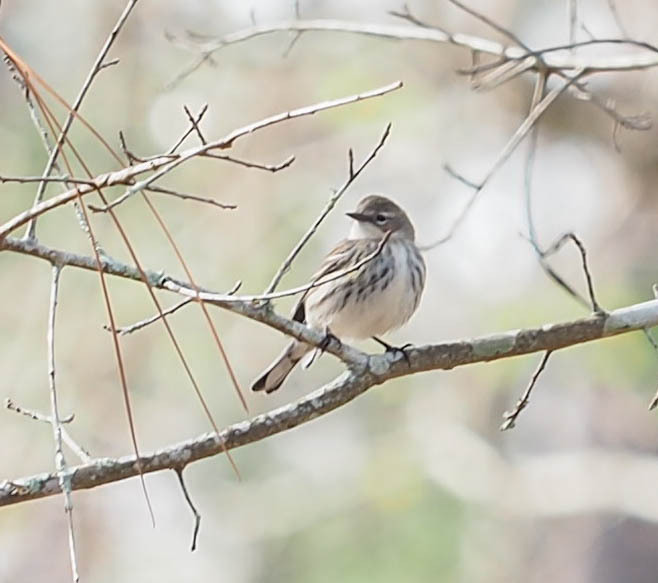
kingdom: Animalia
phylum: Chordata
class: Aves
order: Passeriformes
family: Parulidae
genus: Setophaga
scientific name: Setophaga coronata
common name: Myrtle warbler
